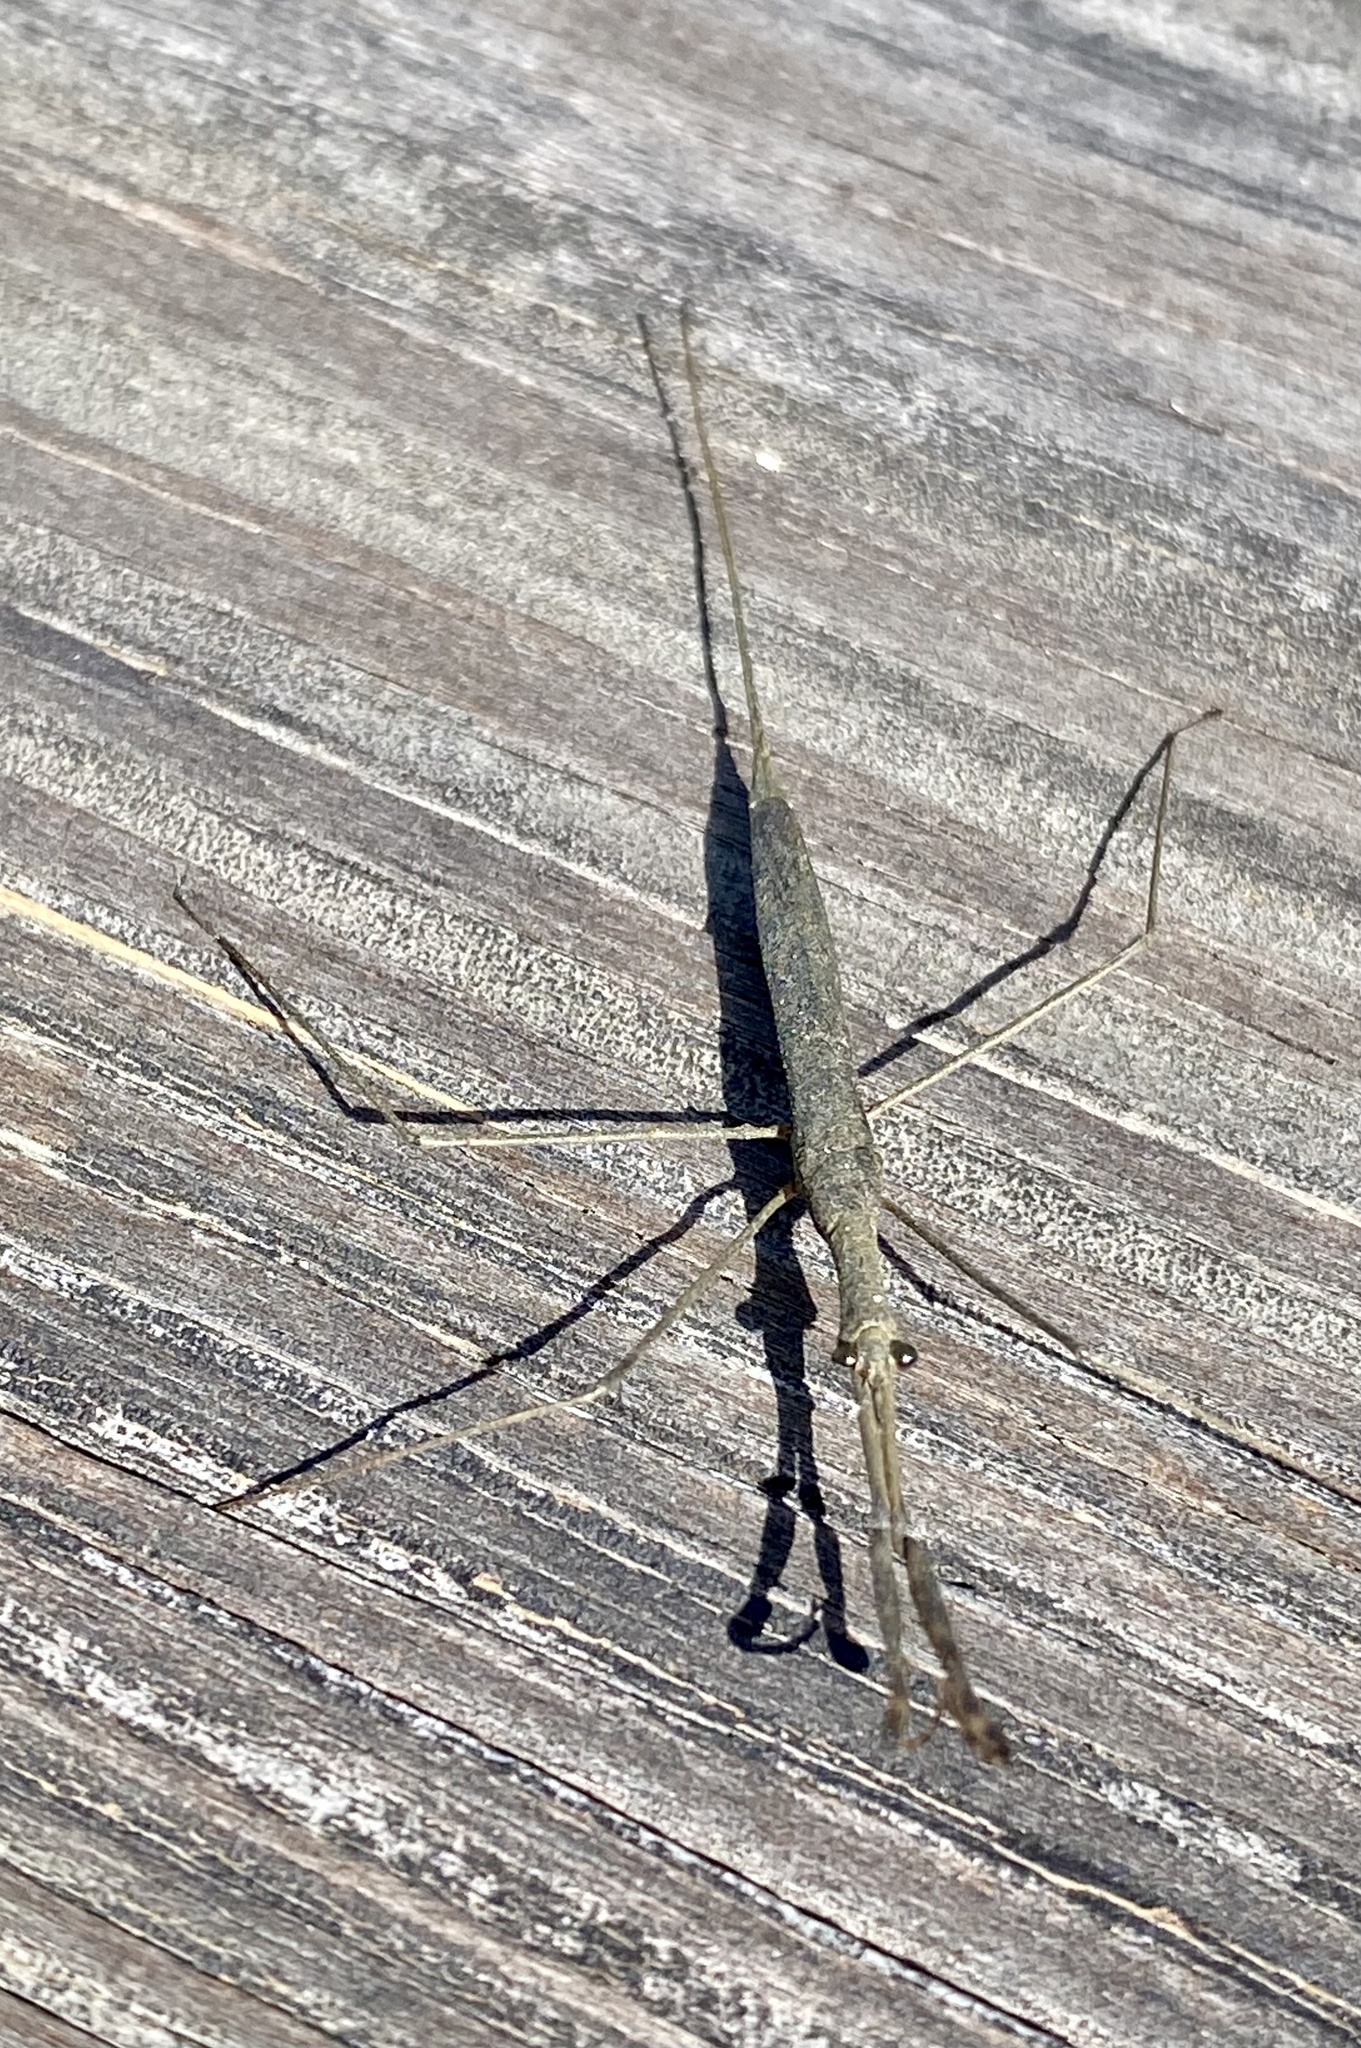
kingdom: Animalia
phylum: Arthropoda
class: Insecta
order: Hemiptera
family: Nepidae
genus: Ranatra
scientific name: Ranatra
